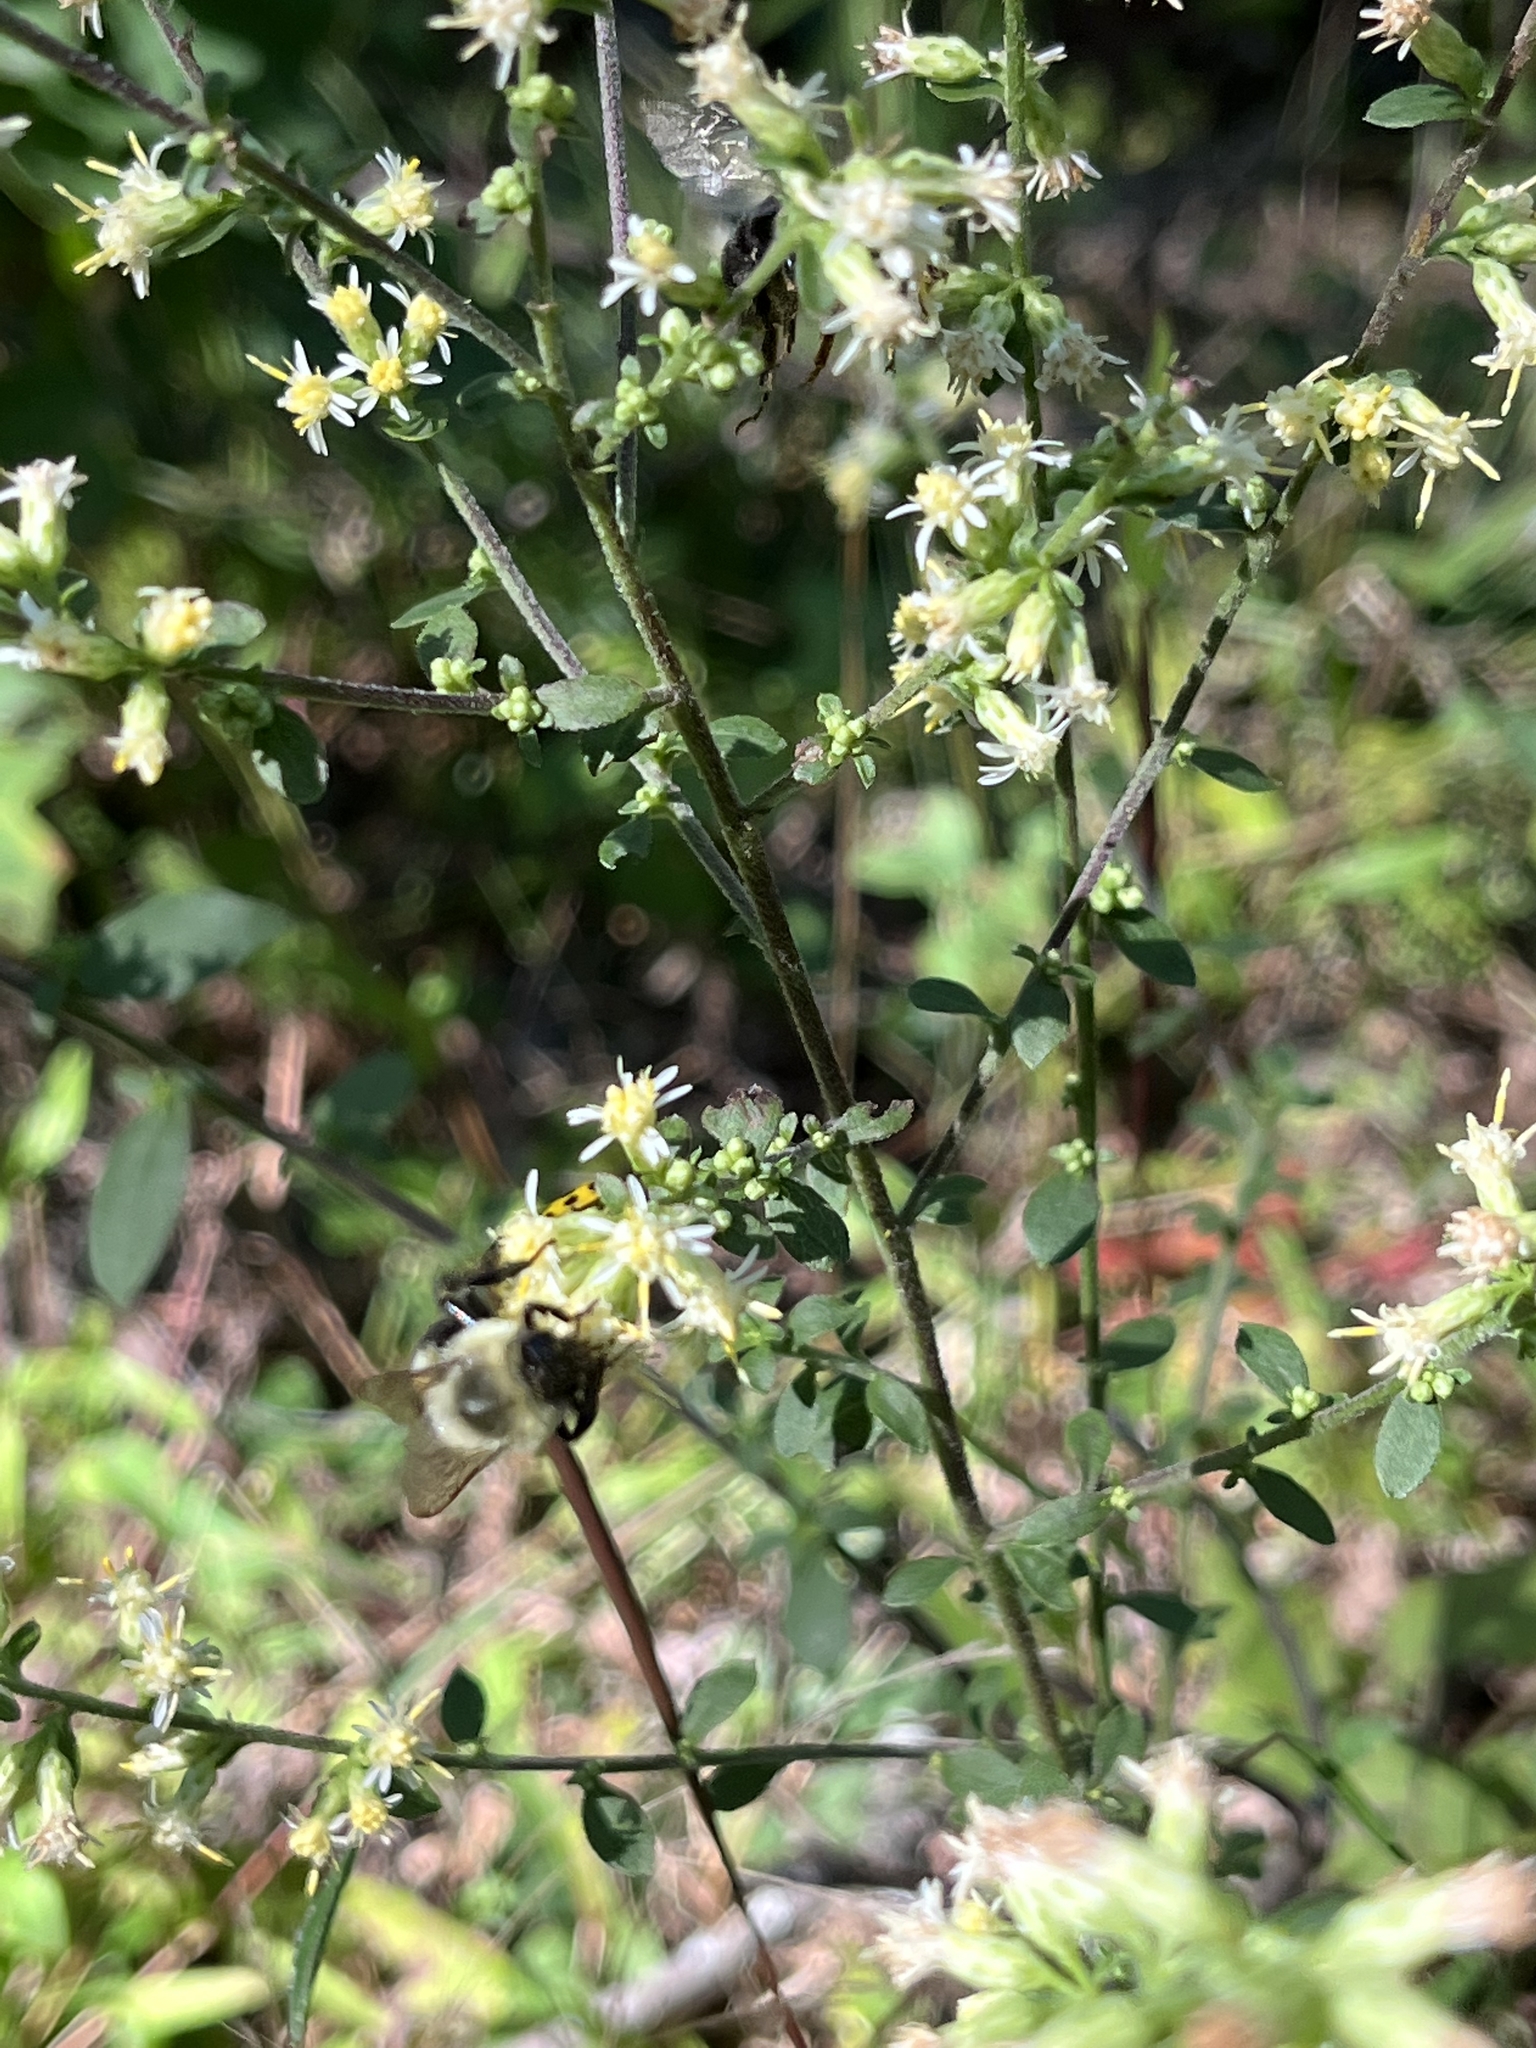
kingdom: Animalia
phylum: Arthropoda
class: Insecta
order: Hymenoptera
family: Apidae
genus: Bombus
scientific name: Bombus impatiens
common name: Common eastern bumble bee
